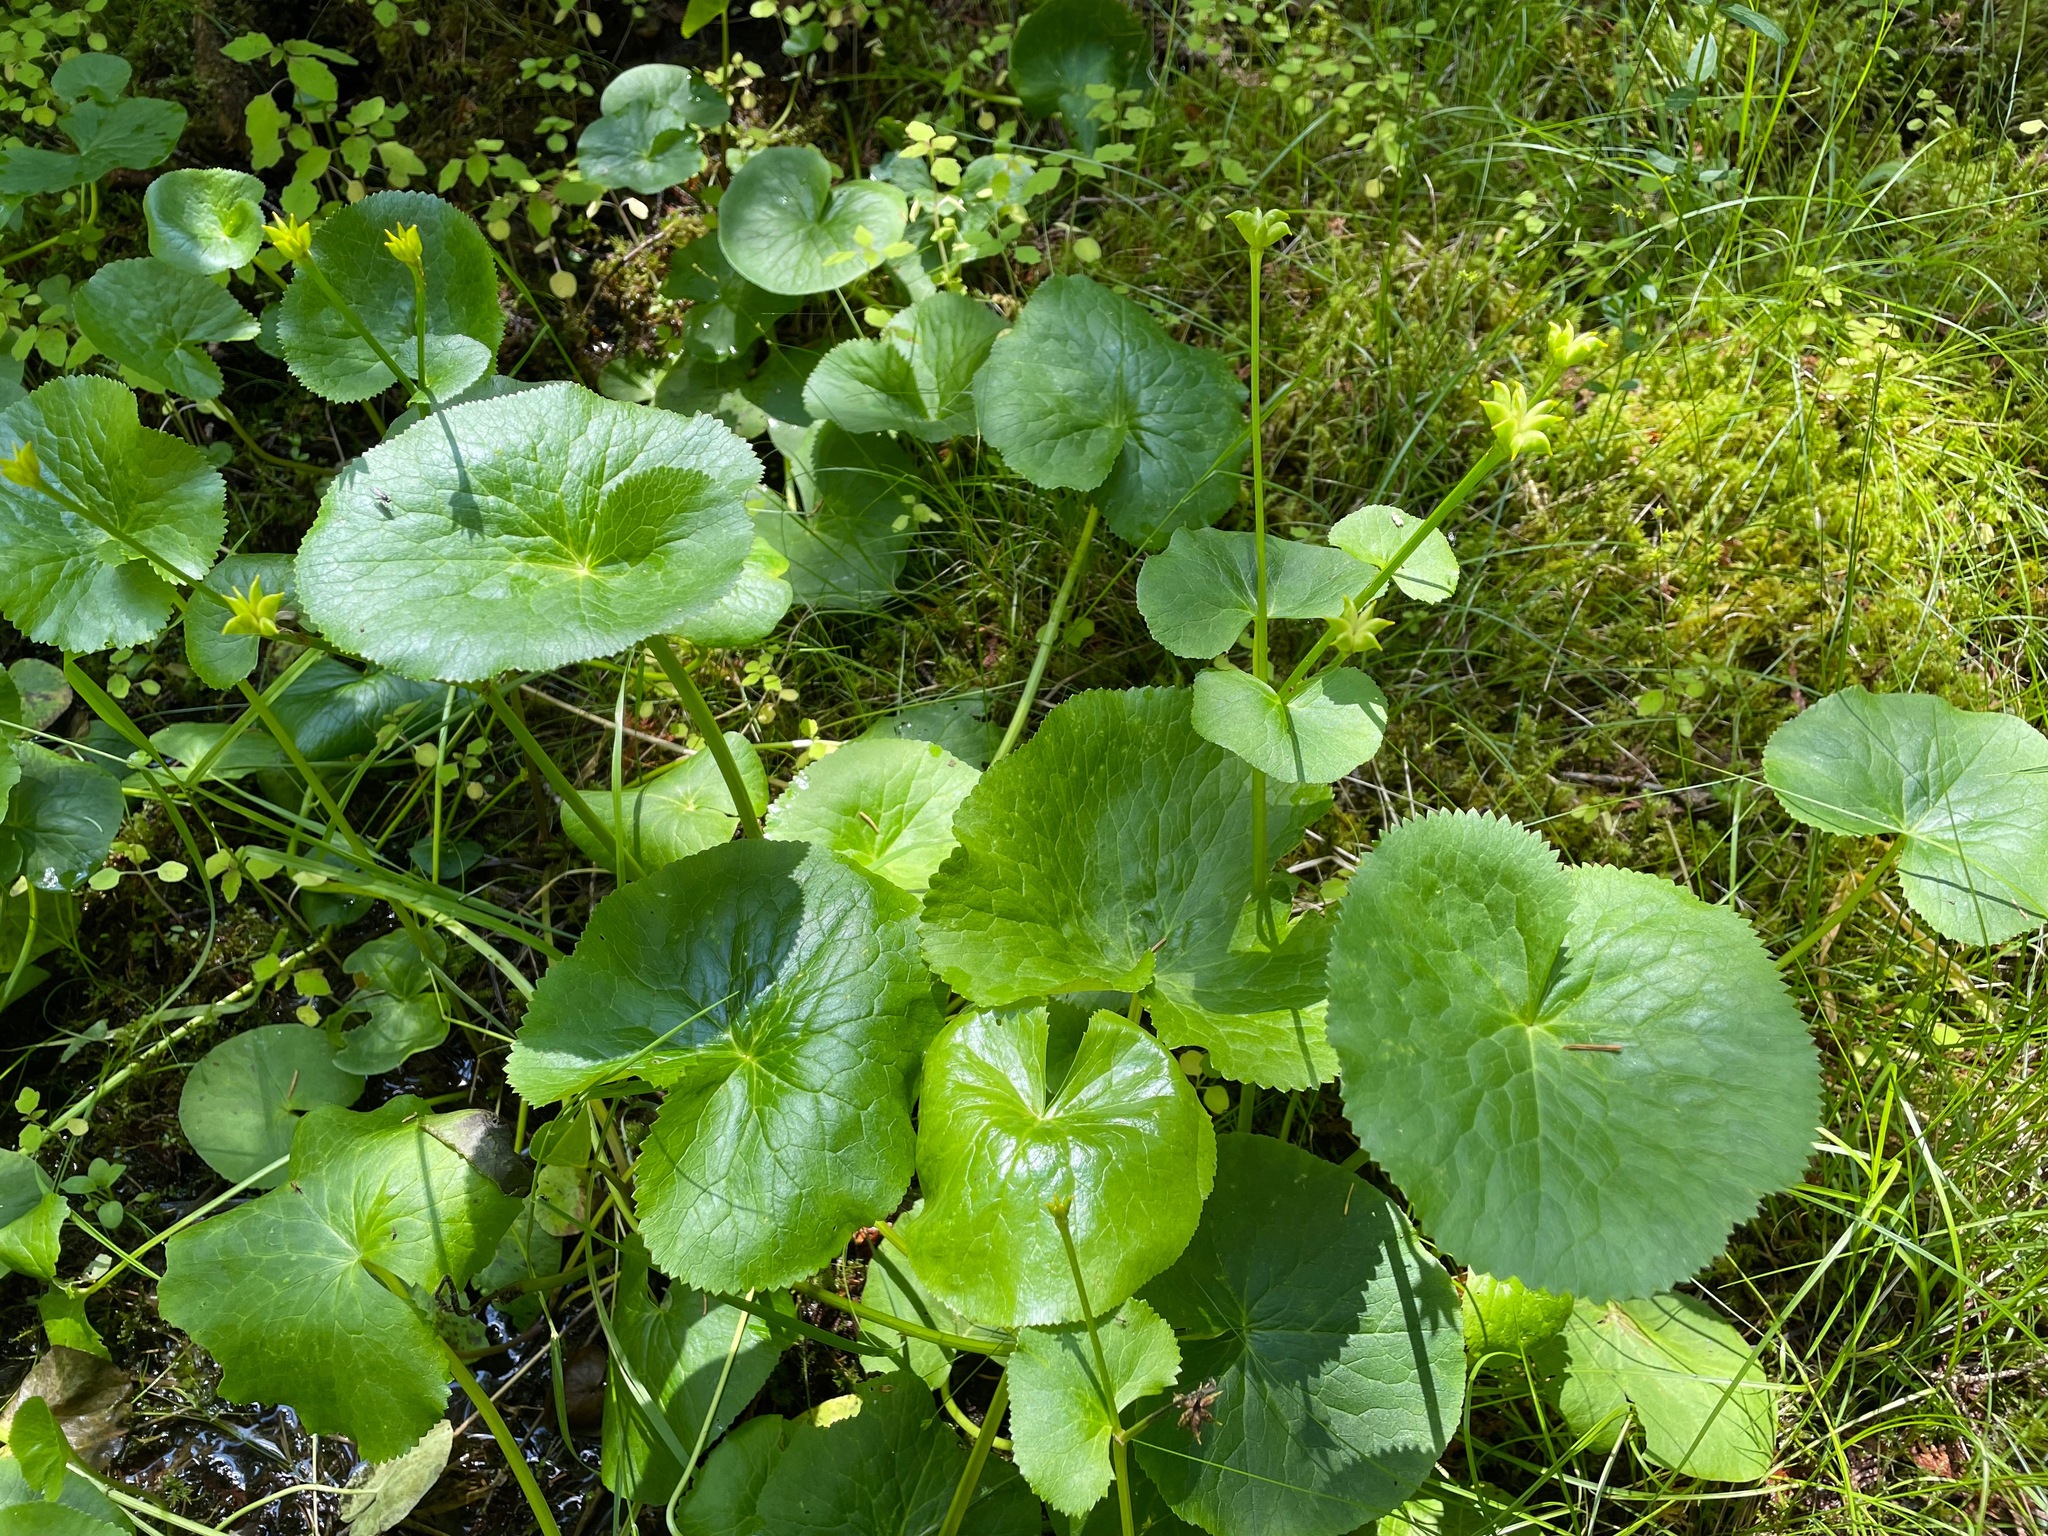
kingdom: Plantae
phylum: Tracheophyta
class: Magnoliopsida
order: Ranunculales
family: Ranunculaceae
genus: Caltha
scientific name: Caltha palustris
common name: Marsh marigold
